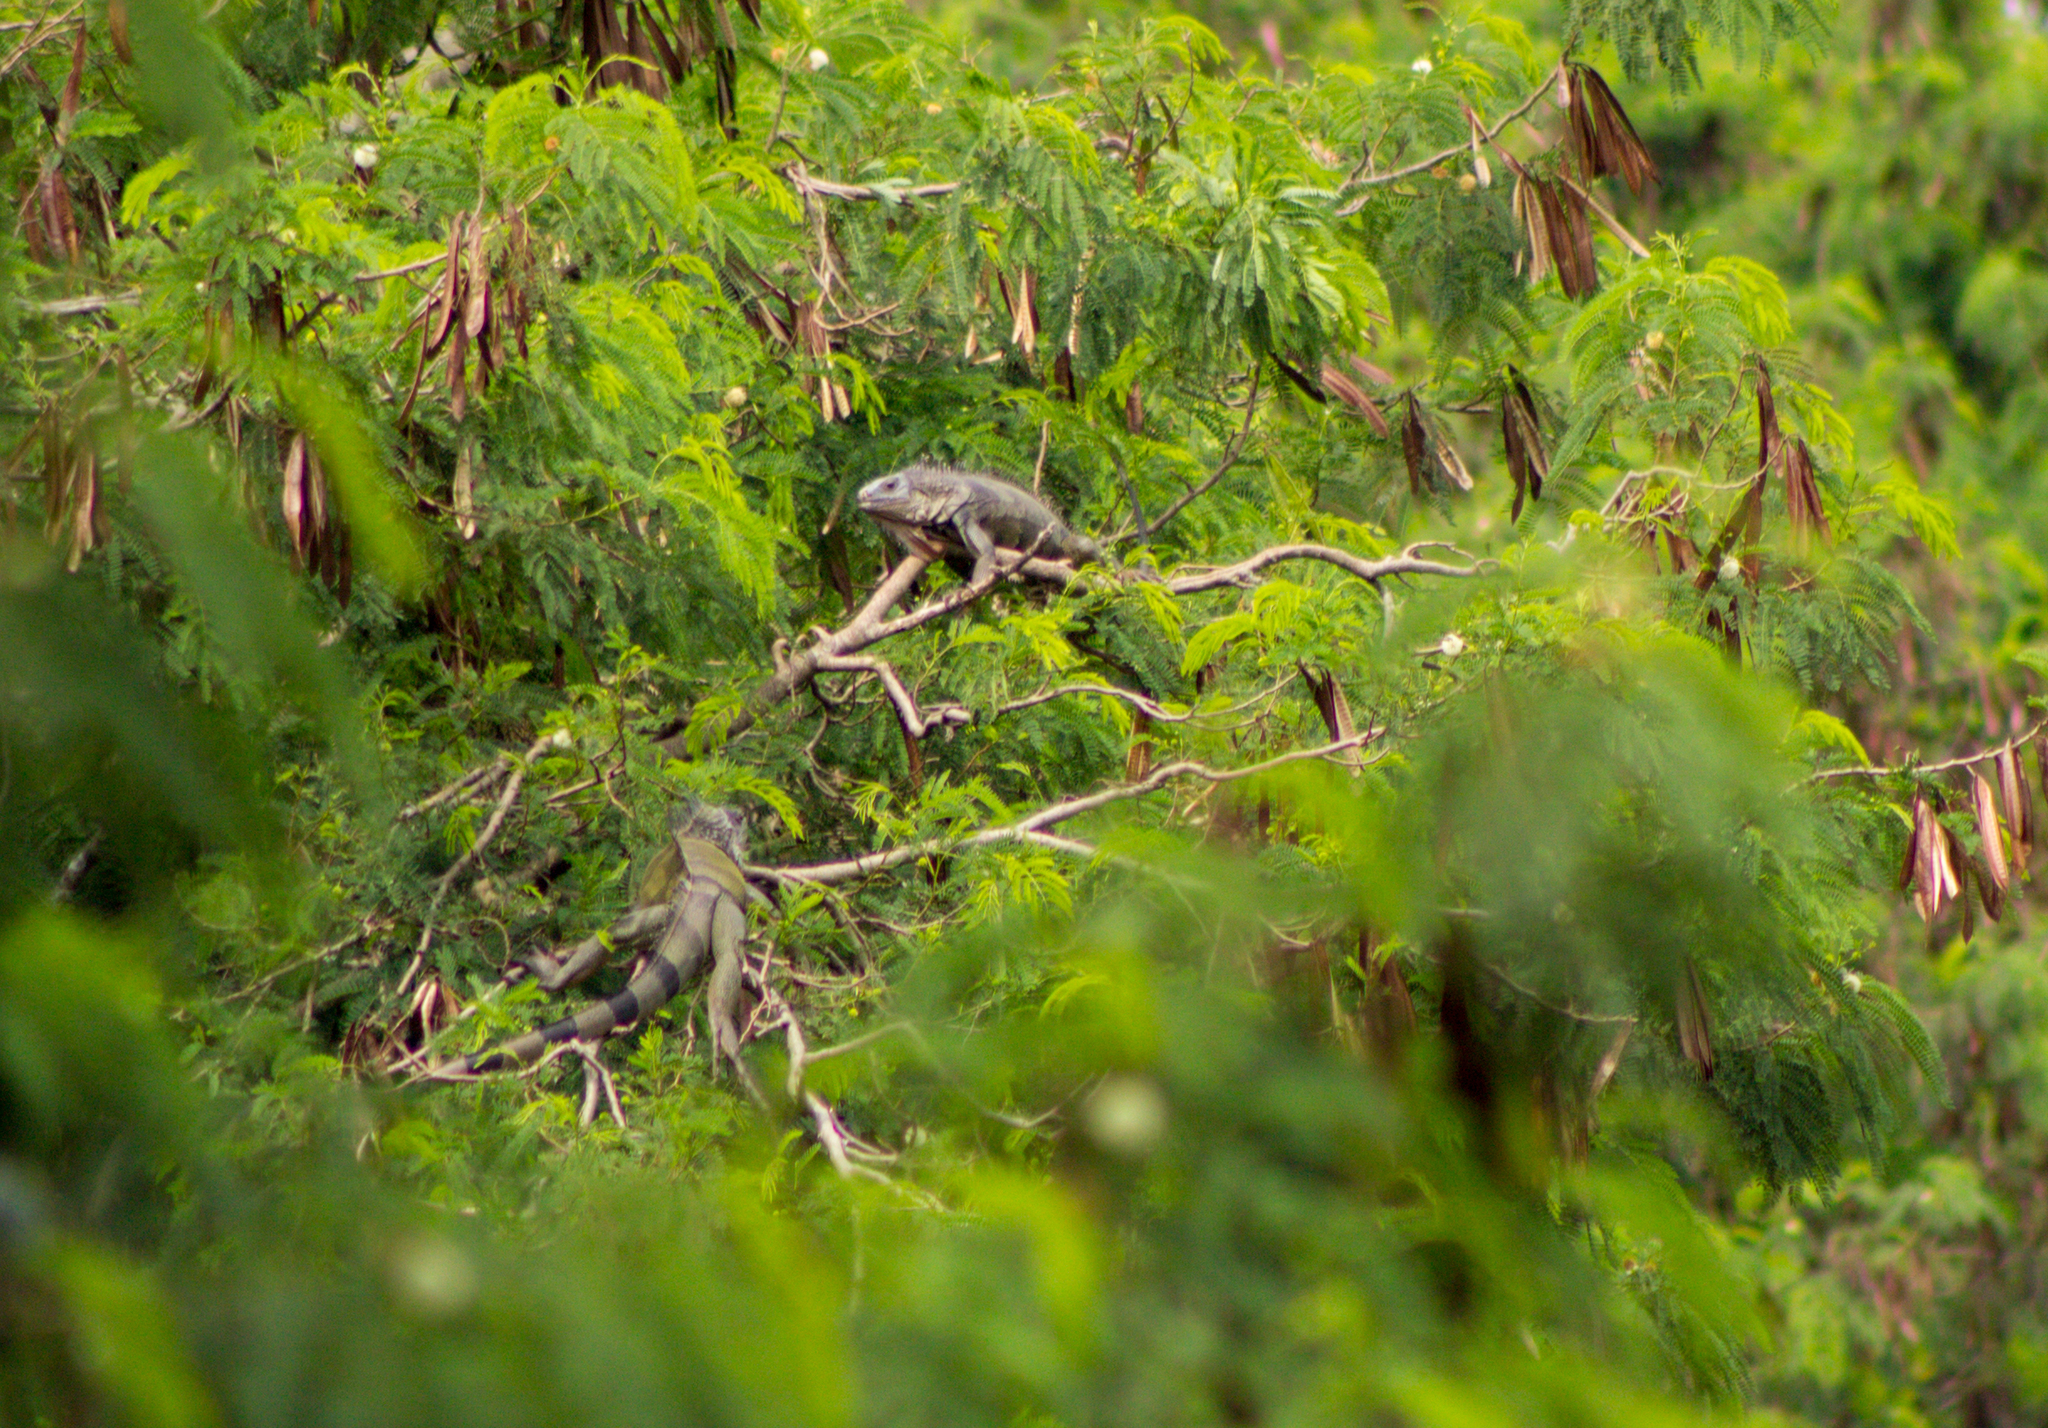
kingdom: Animalia
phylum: Chordata
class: Squamata
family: Iguanidae
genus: Iguana
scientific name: Iguana iguana
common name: Green iguana
